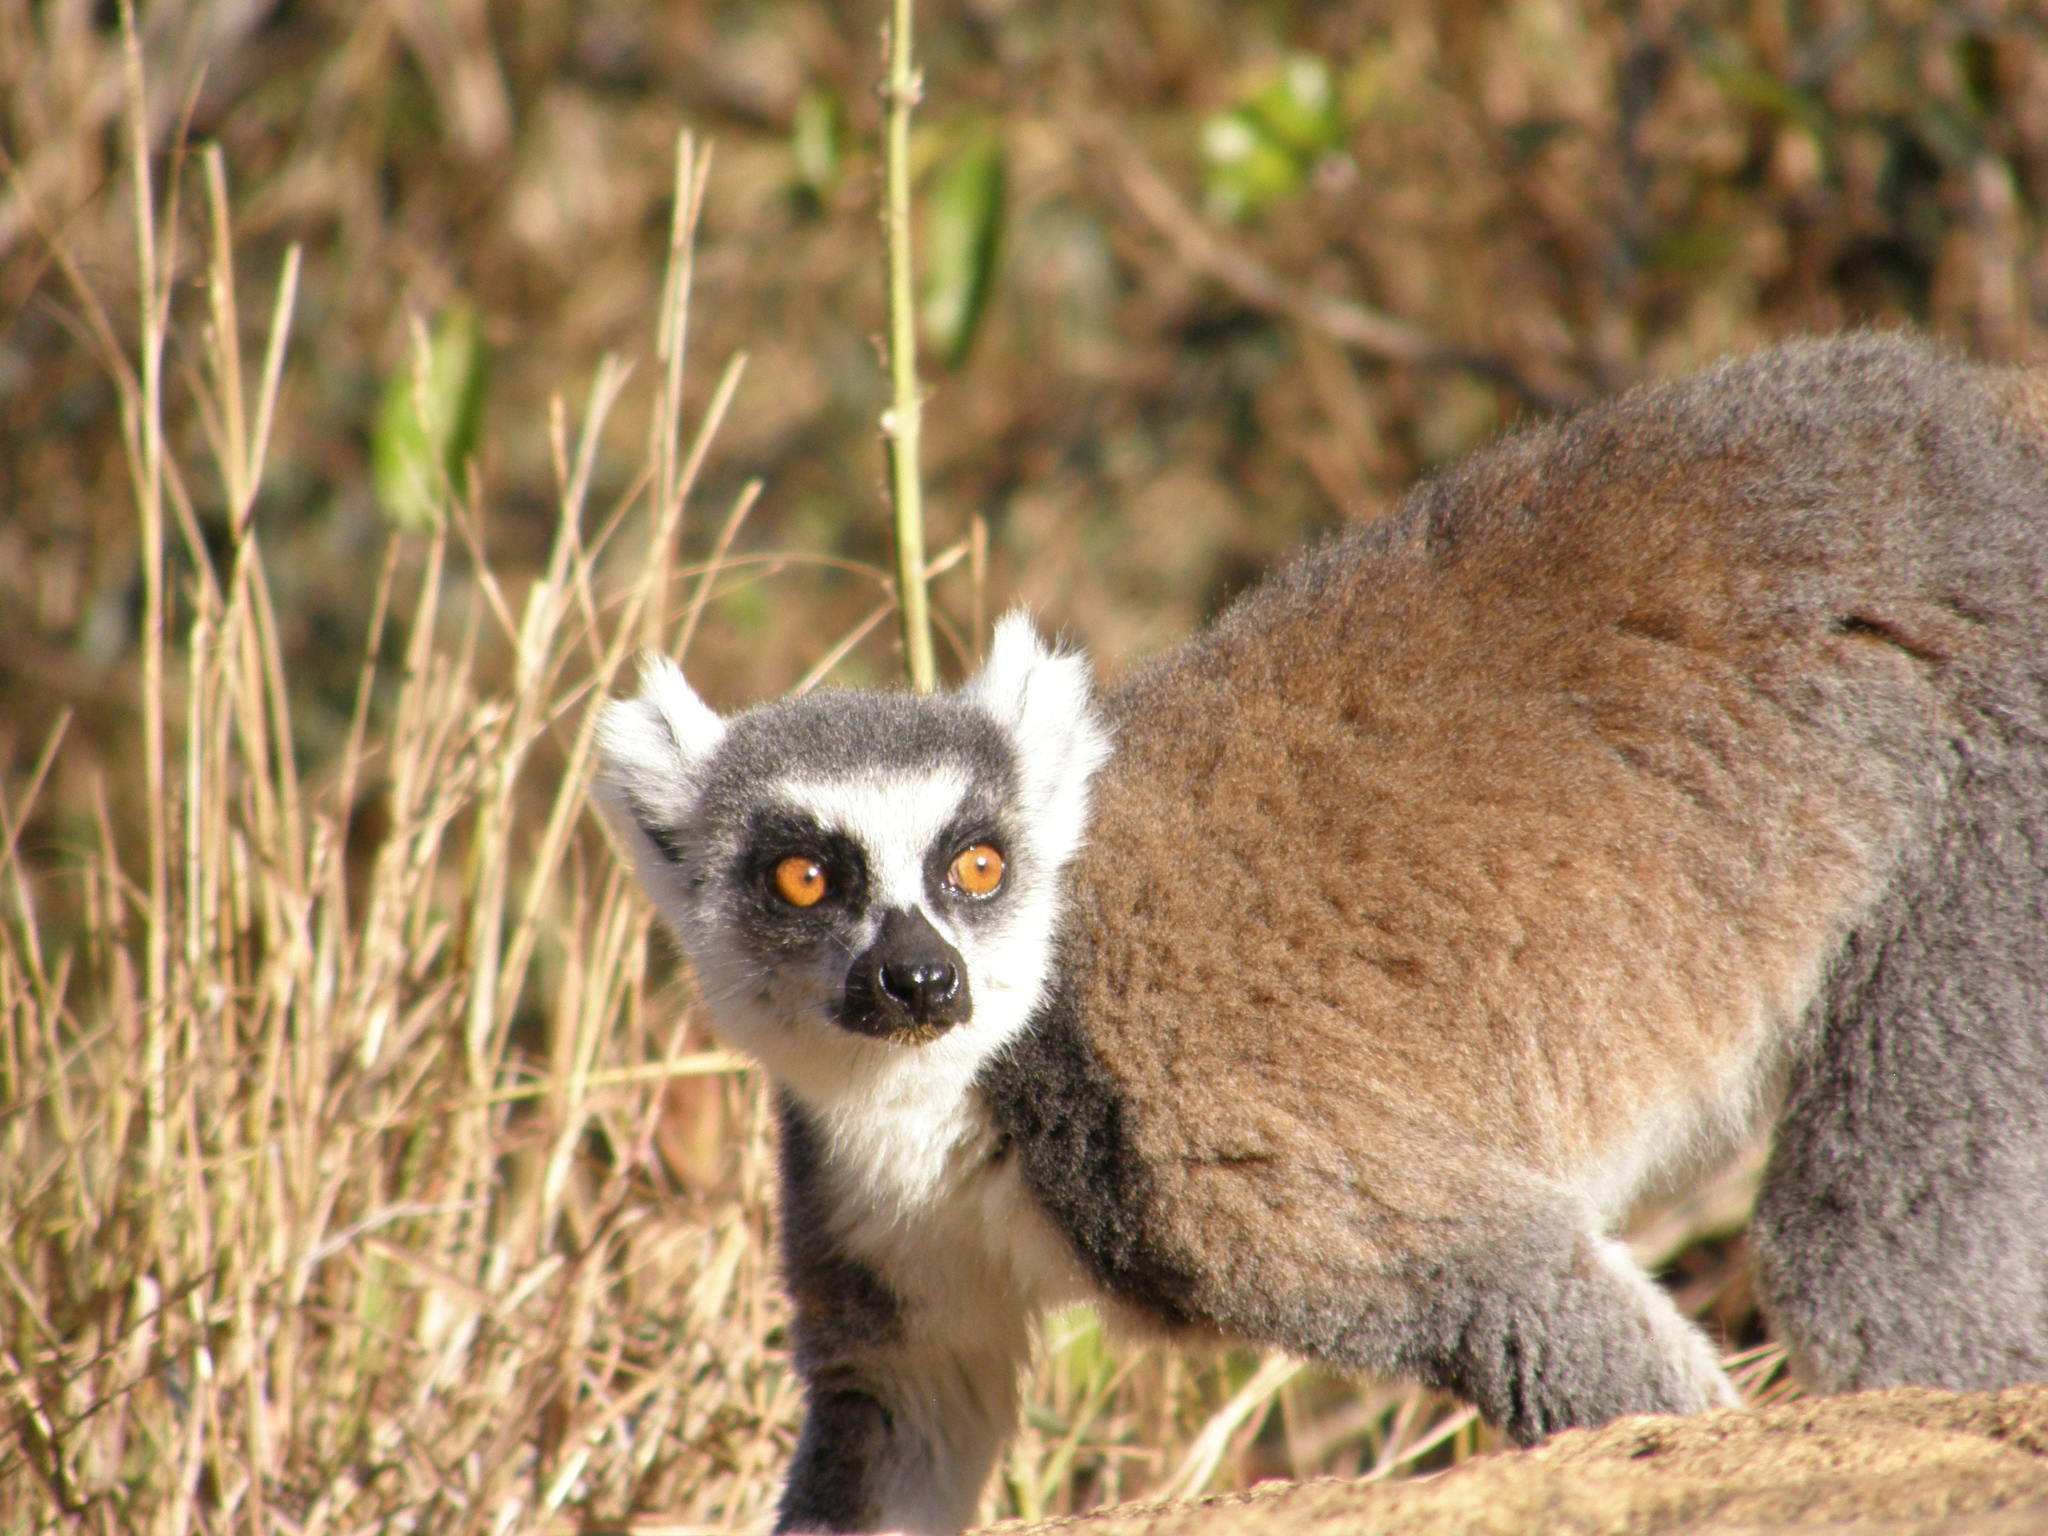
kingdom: Animalia
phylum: Chordata
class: Mammalia
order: Primates
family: Lemuridae
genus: Lemur
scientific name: Lemur catta
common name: Ring-tailed lemur
